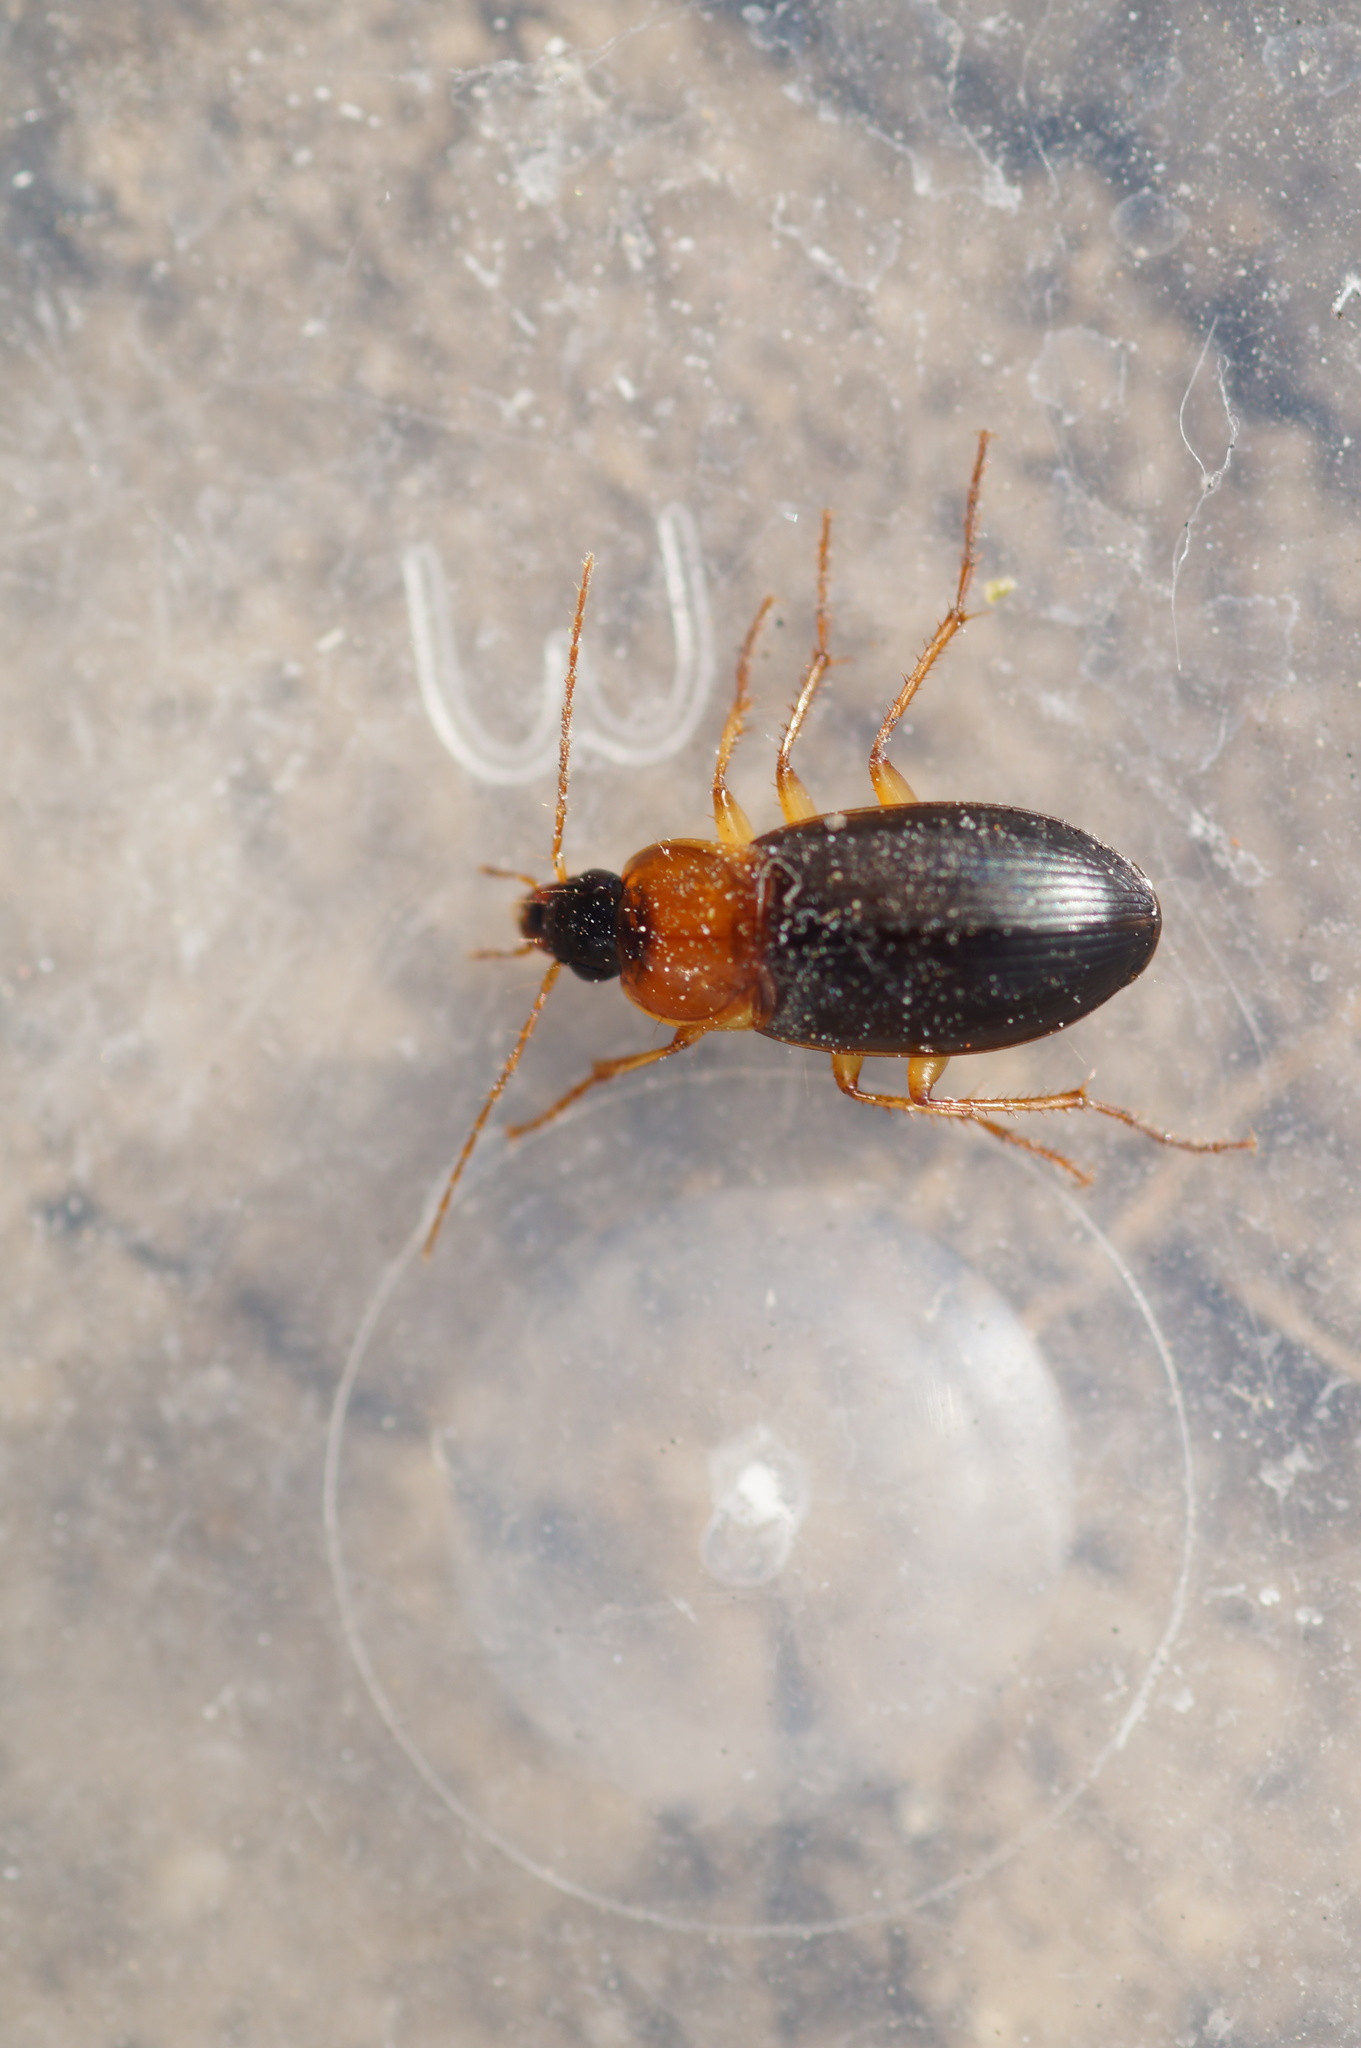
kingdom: Animalia
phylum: Arthropoda
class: Insecta
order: Coleoptera
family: Carabidae
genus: Calathus
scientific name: Calathus melanocephalus
